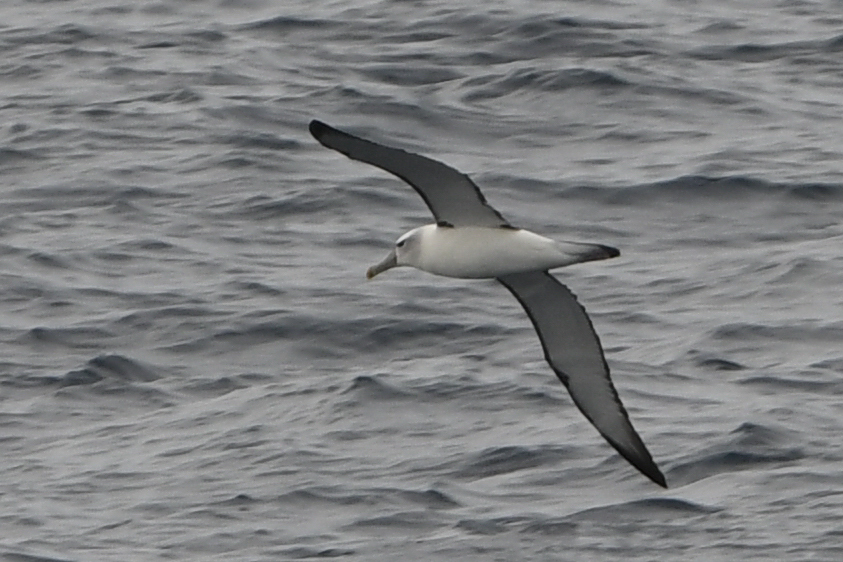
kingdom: Animalia
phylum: Chordata
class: Aves
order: Procellariiformes
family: Diomedeidae
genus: Thalassarche
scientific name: Thalassarche salvini
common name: Salvin's albatross
